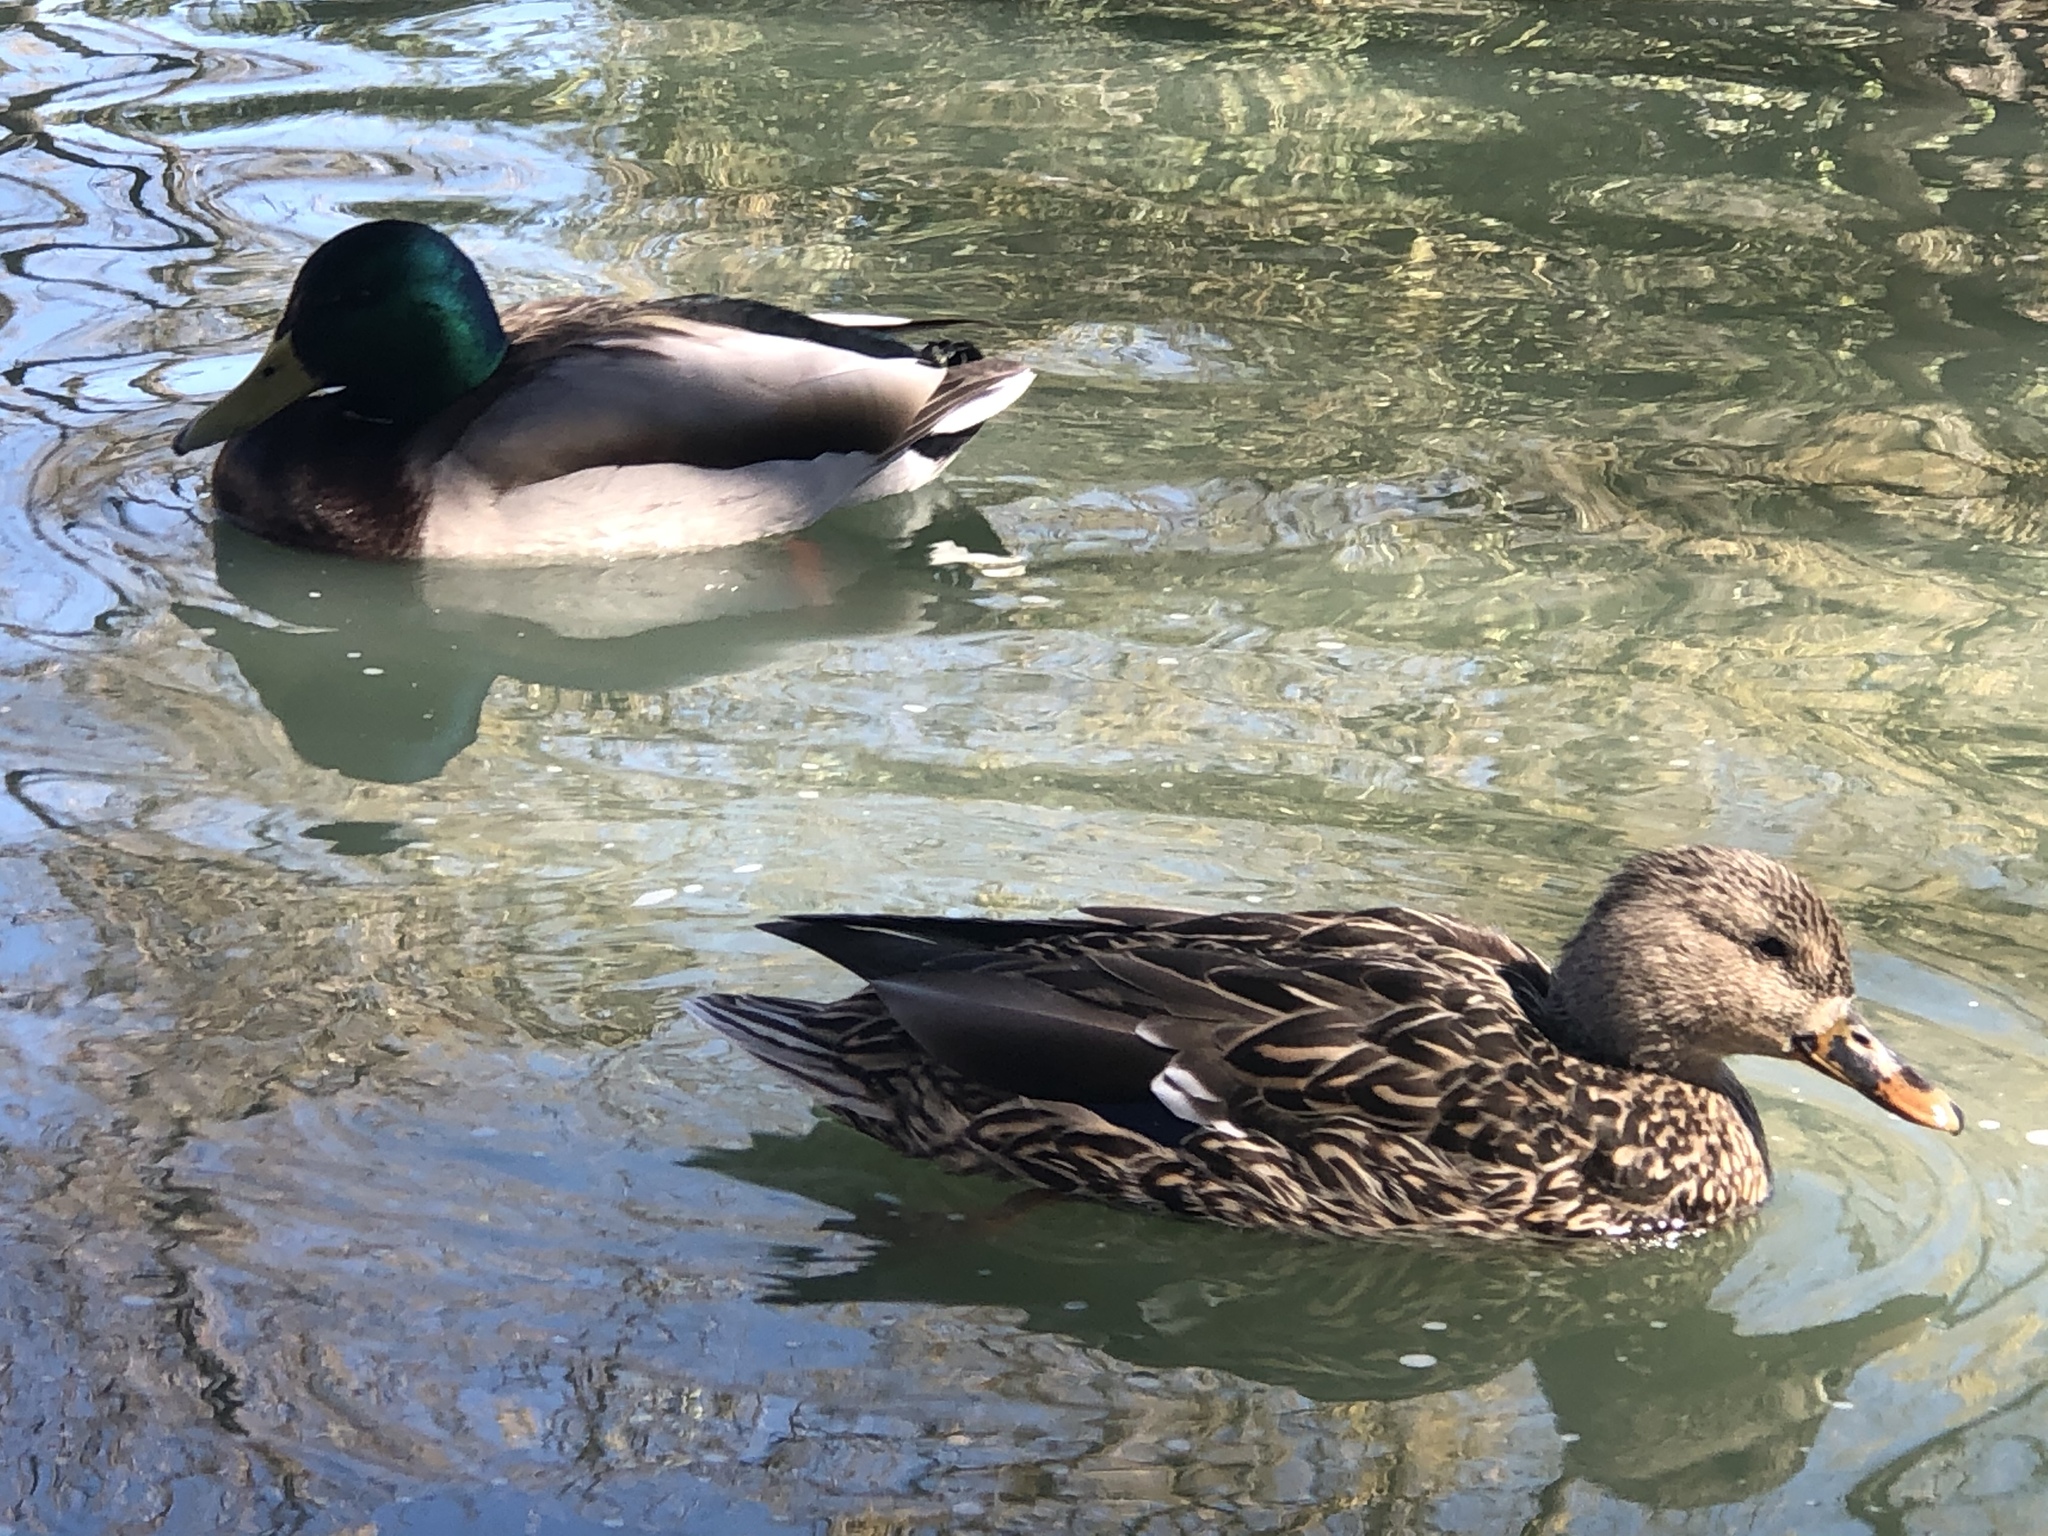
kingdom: Animalia
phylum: Chordata
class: Aves
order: Anseriformes
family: Anatidae
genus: Anas
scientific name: Anas platyrhynchos
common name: Mallard
